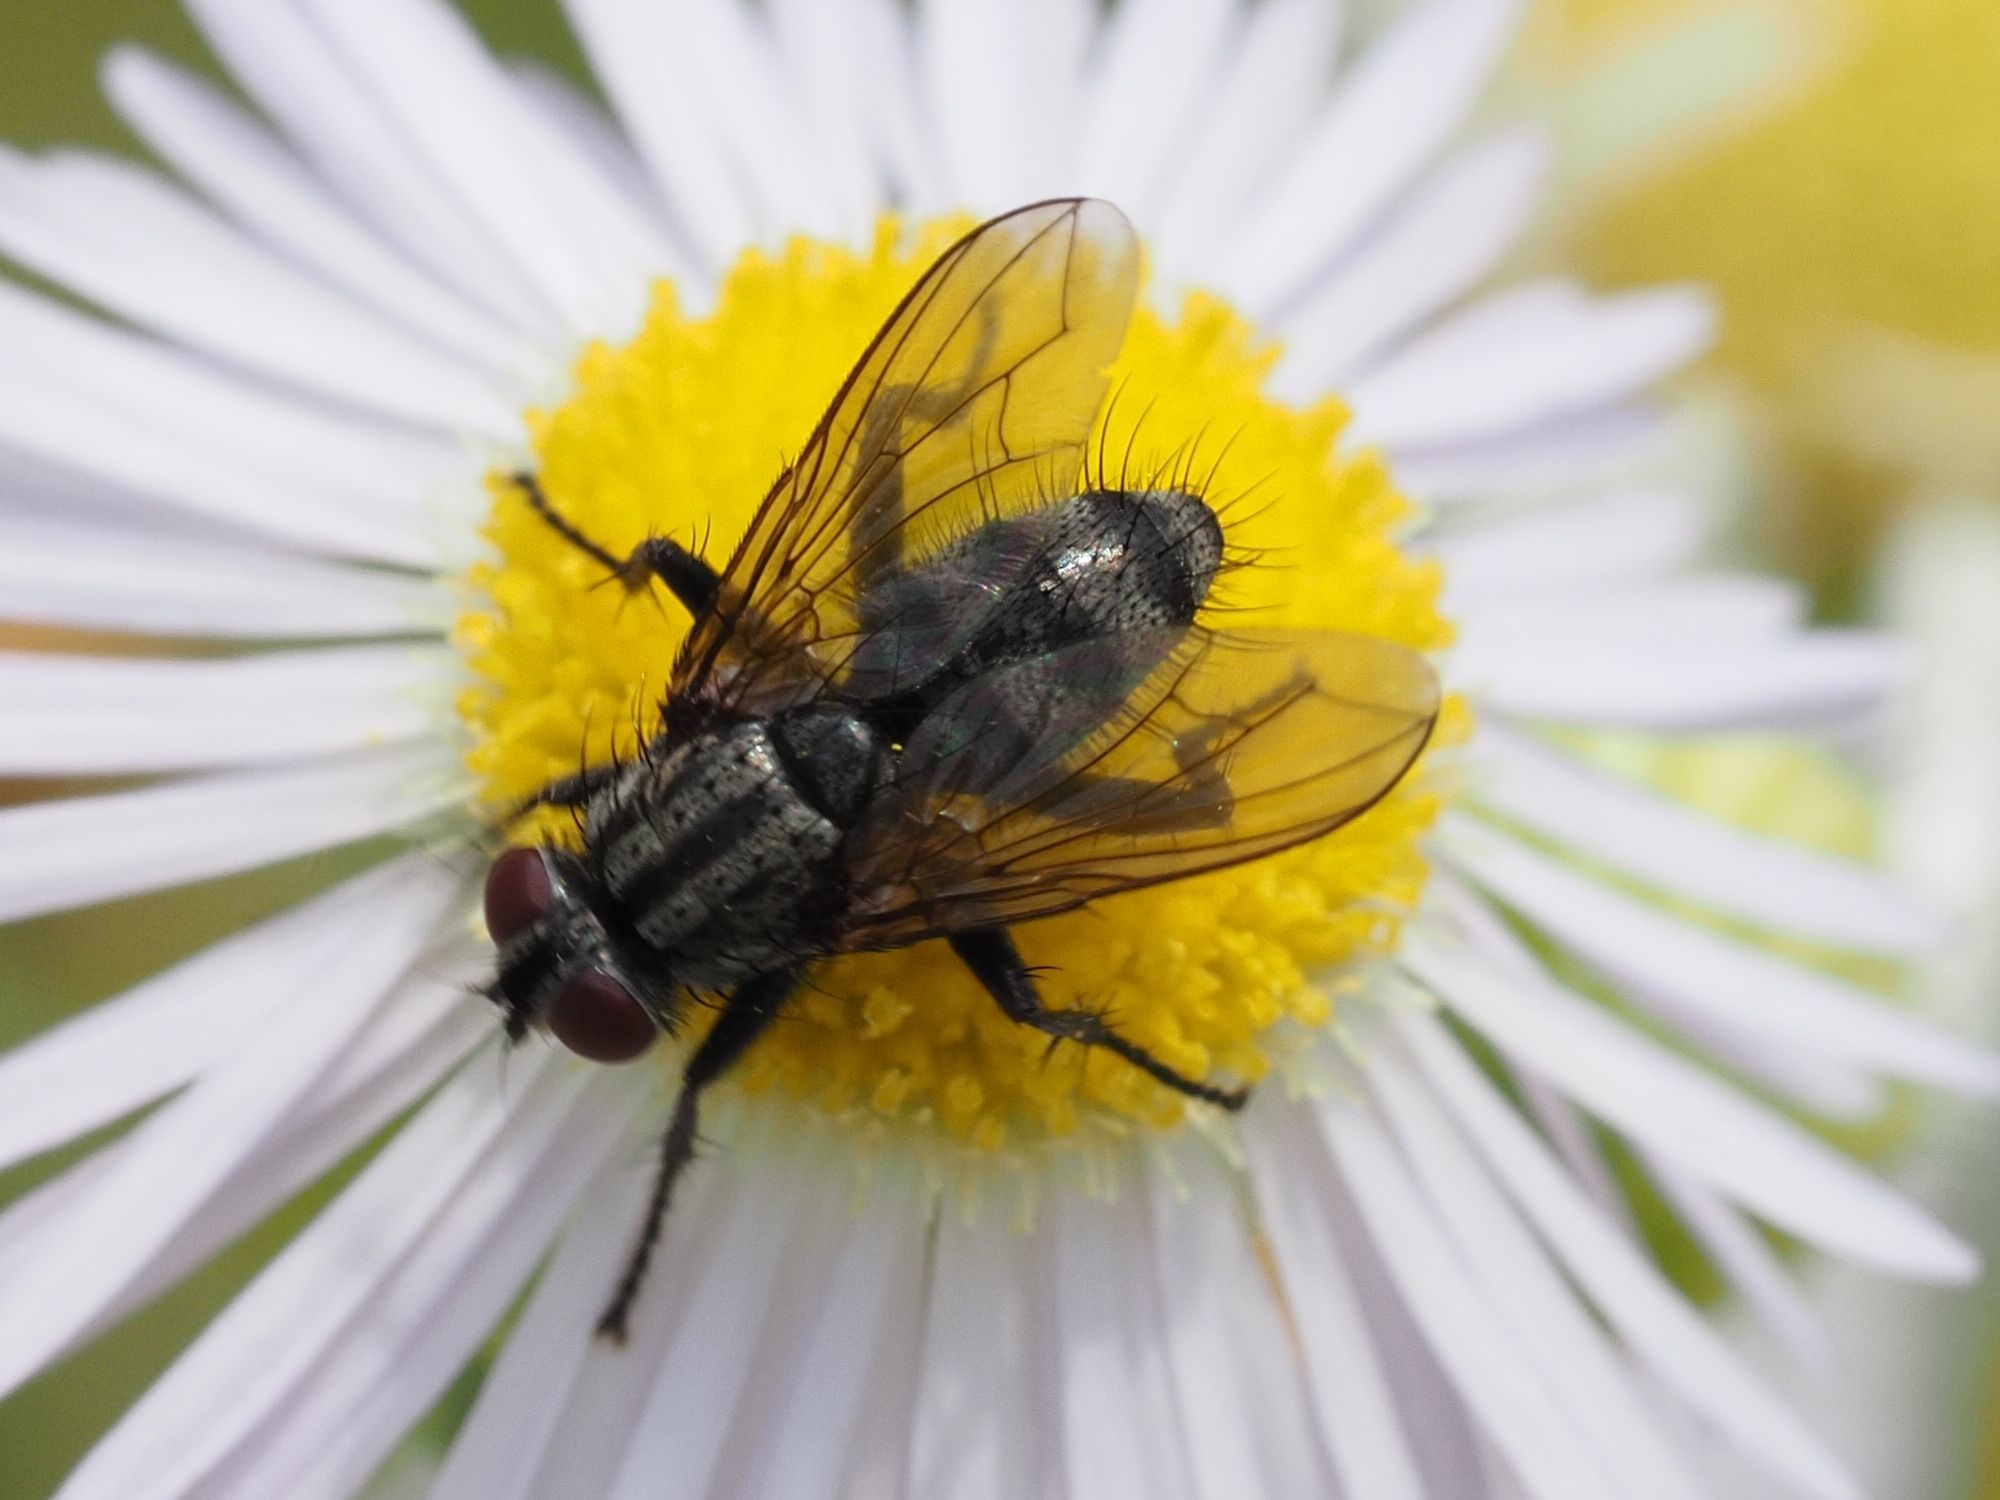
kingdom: Animalia
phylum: Arthropoda
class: Insecta
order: Diptera
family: Calliphoridae
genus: Phyto
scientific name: Phyto melanocephala
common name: Three-striped woodlouse-fly
